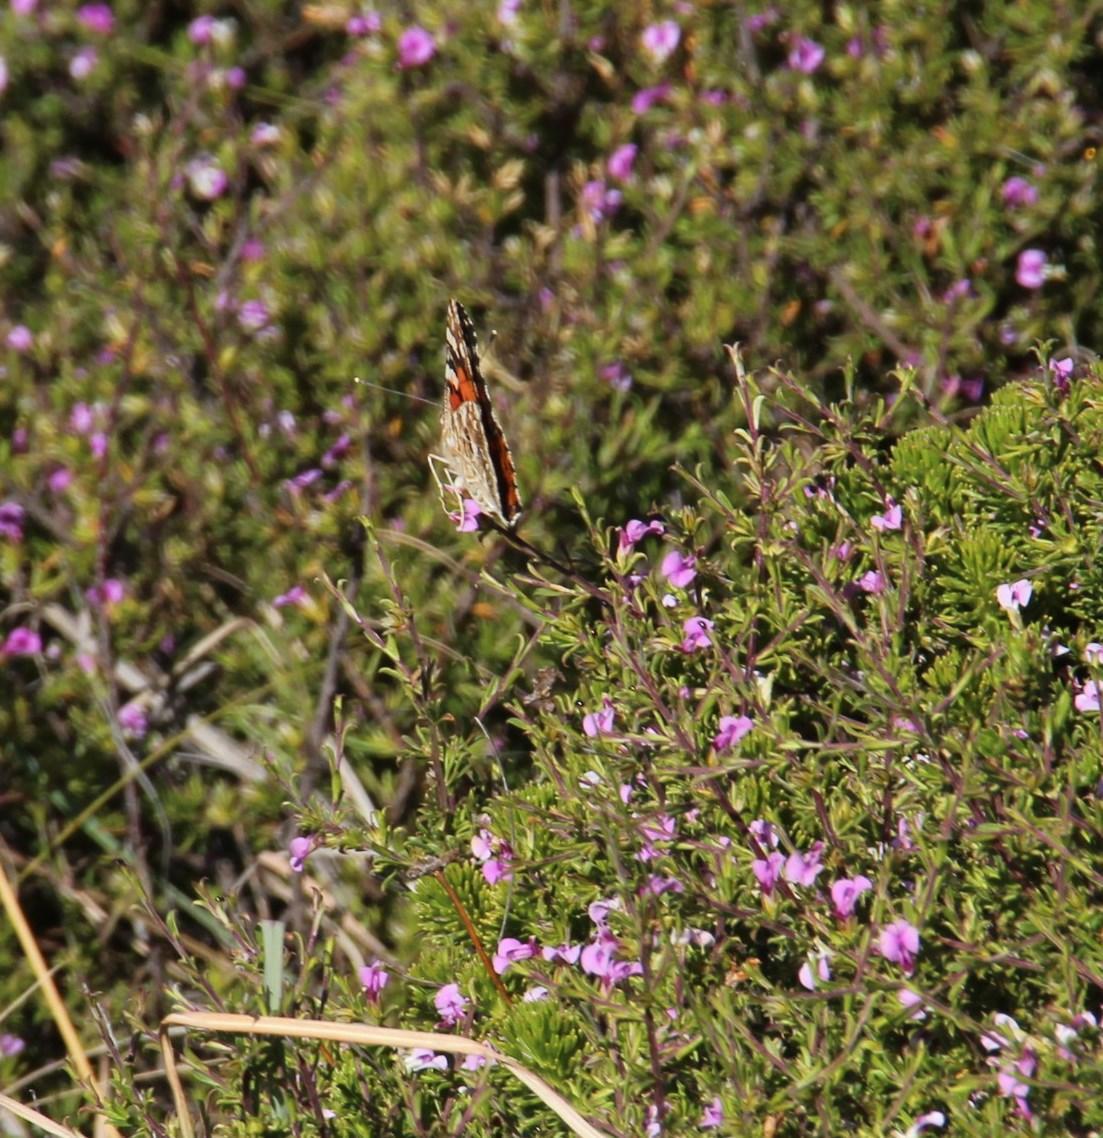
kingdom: Animalia
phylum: Arthropoda
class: Insecta
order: Lepidoptera
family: Nymphalidae
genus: Vanessa
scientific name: Vanessa cardui
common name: Painted lady
